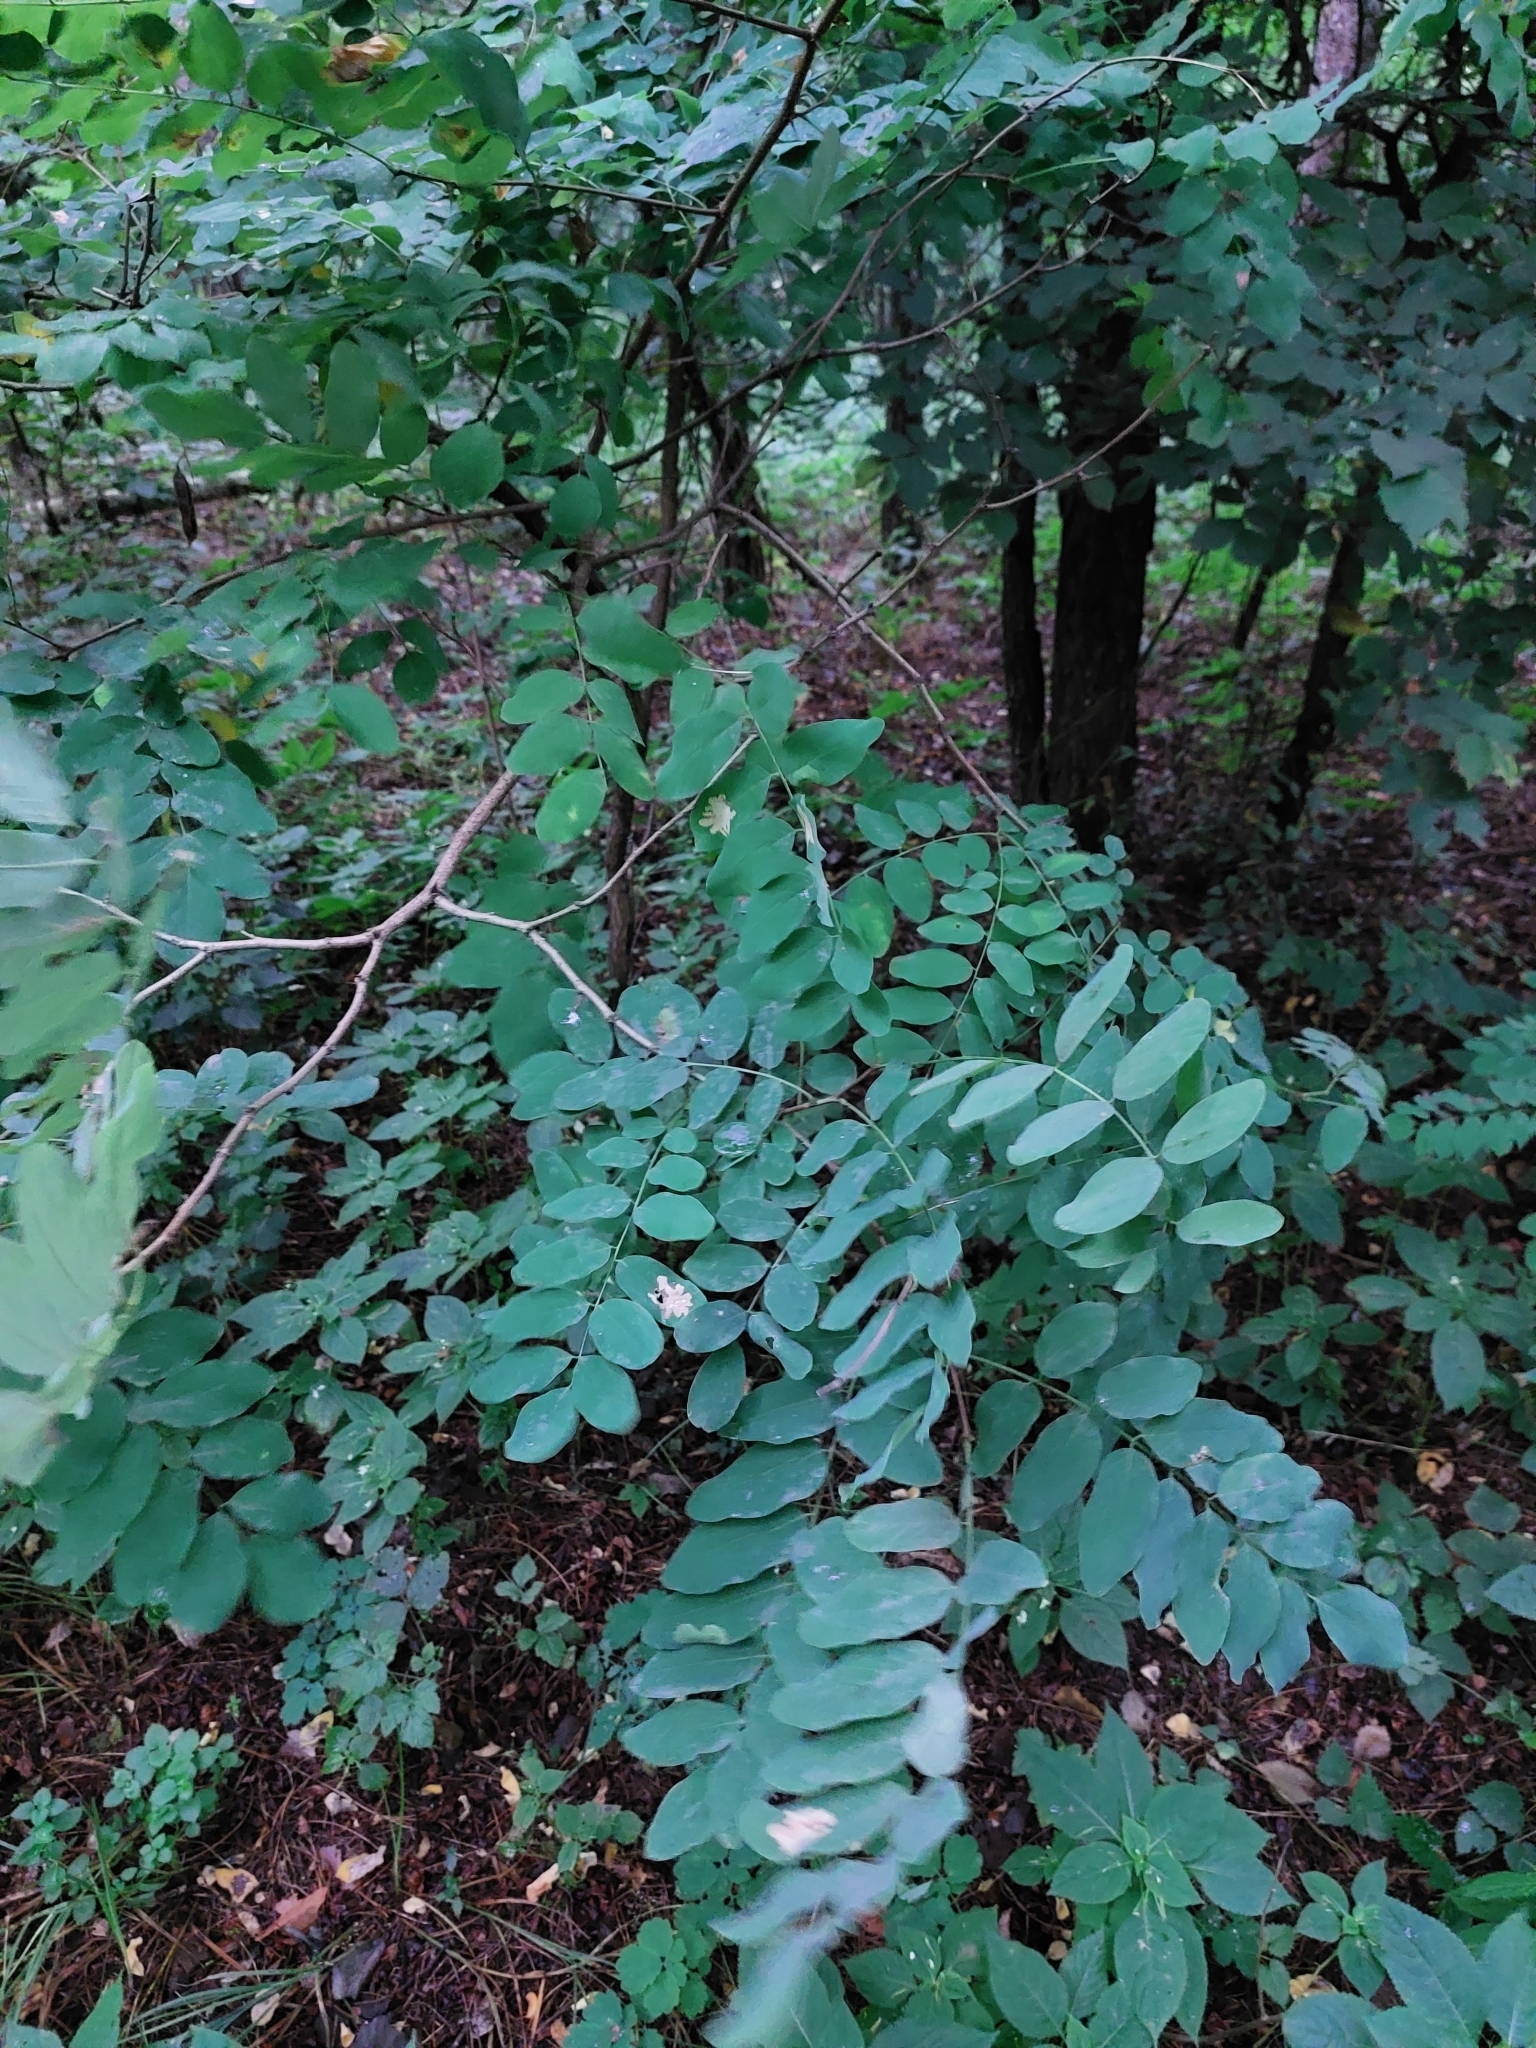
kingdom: Plantae
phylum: Tracheophyta
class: Magnoliopsida
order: Fabales
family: Fabaceae
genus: Robinia
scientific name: Robinia pseudoacacia
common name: Black locust
